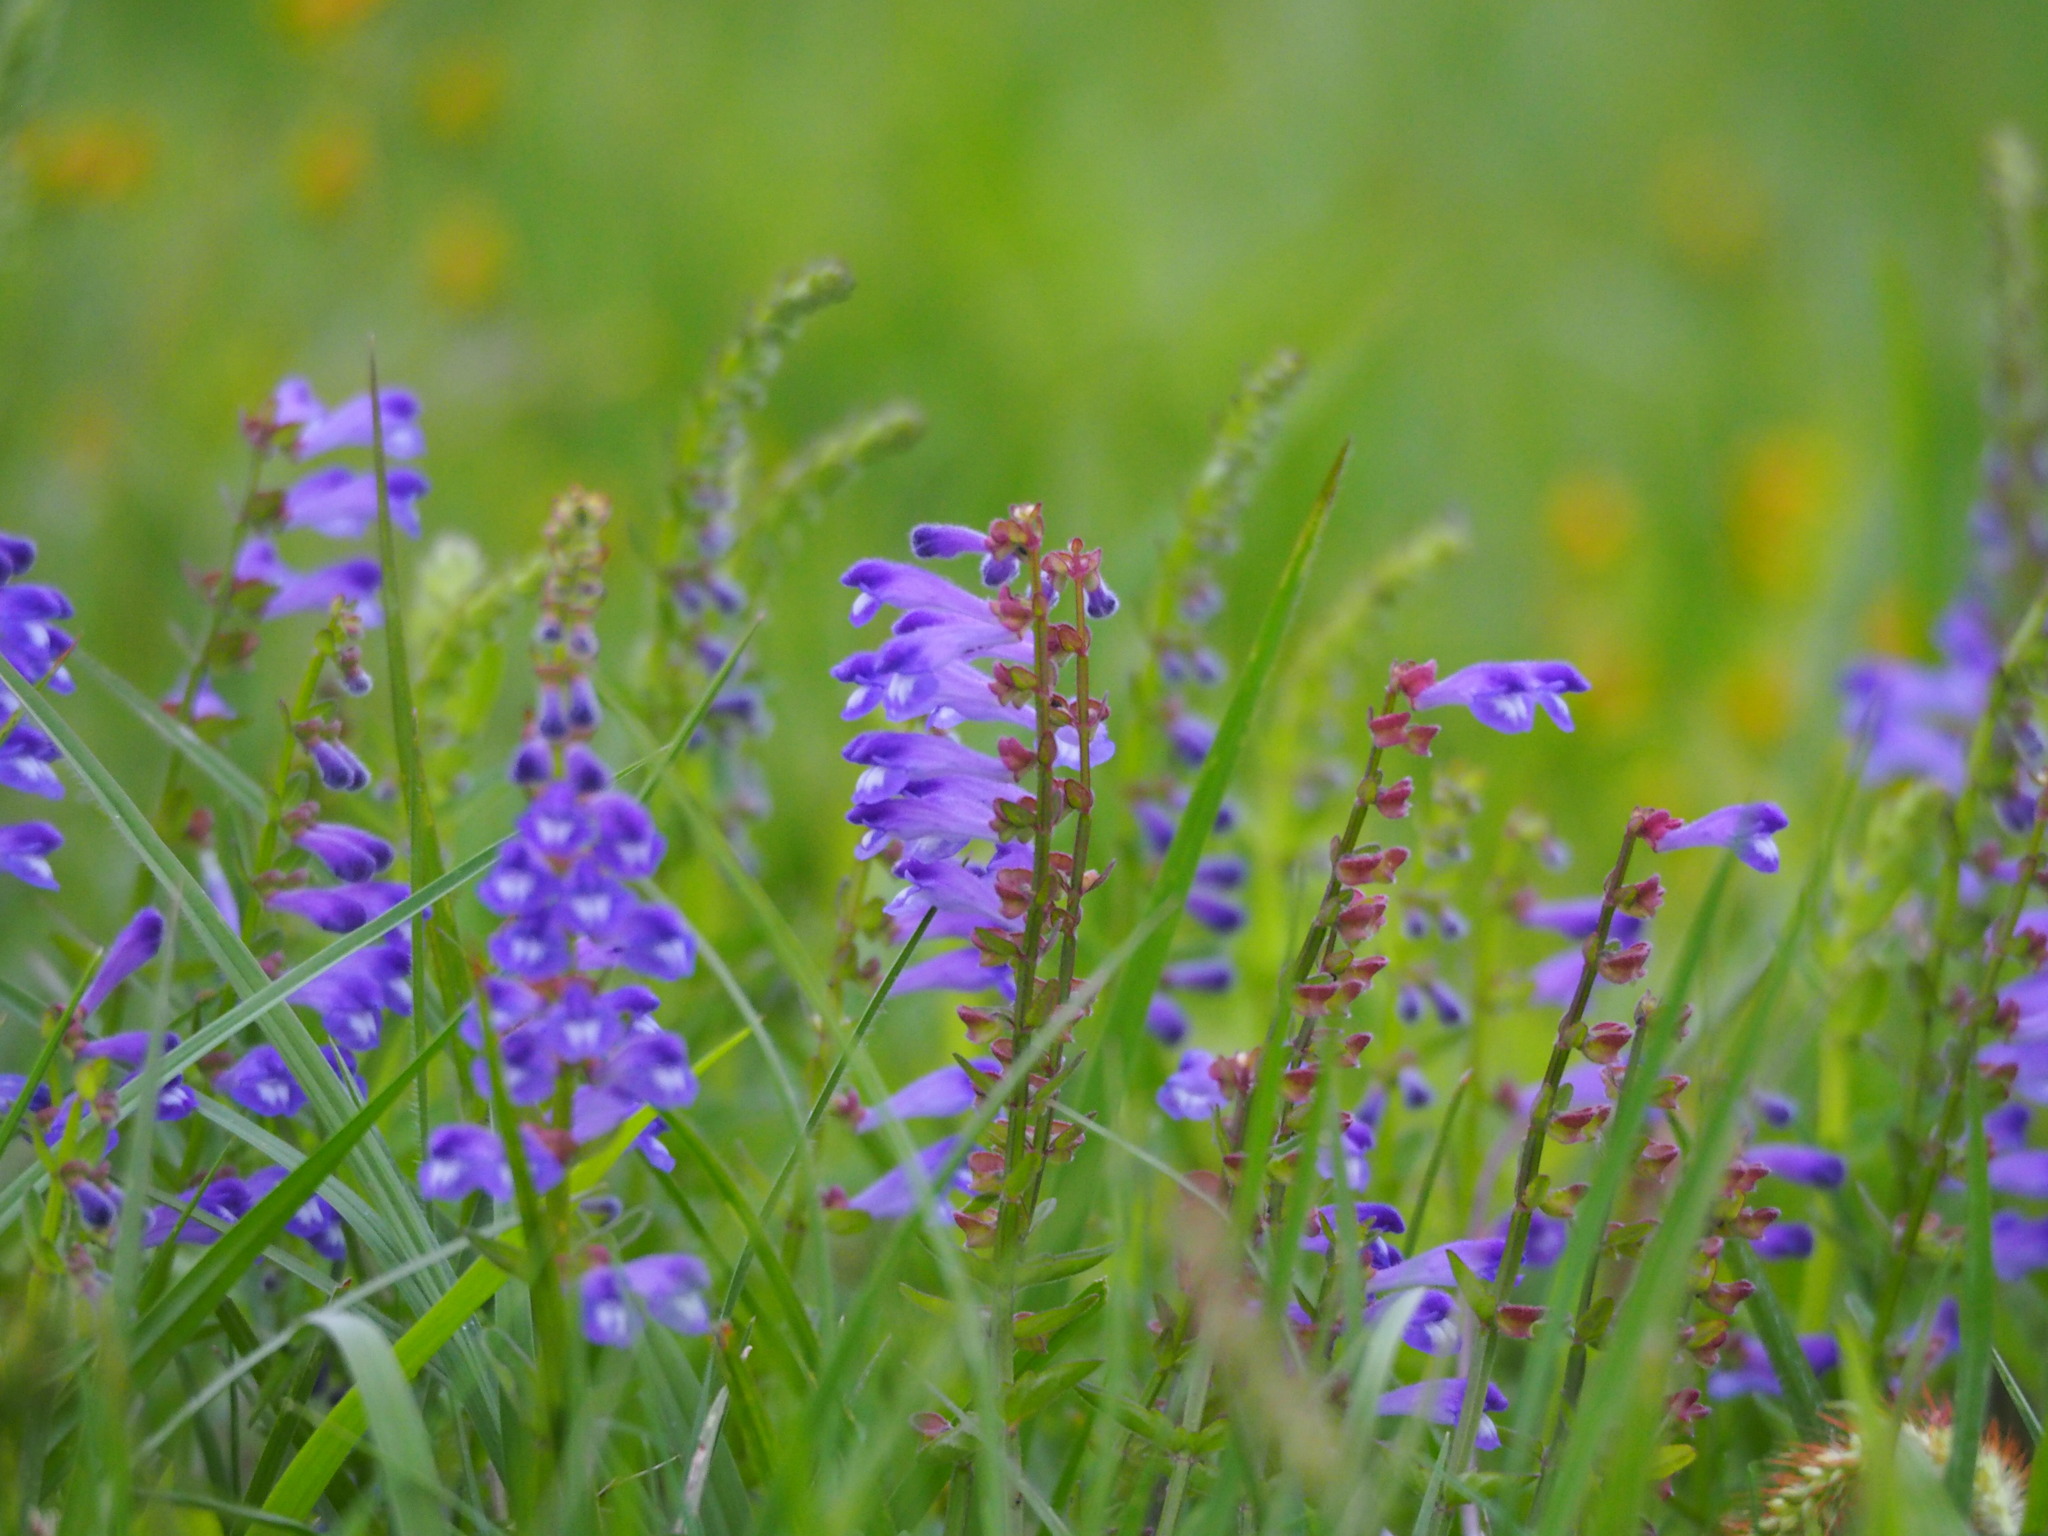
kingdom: Plantae
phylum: Tracheophyta
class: Magnoliopsida
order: Lamiales
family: Lamiaceae
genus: Scutellaria
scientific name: Scutellaria barbata
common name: Barbed skullcap
